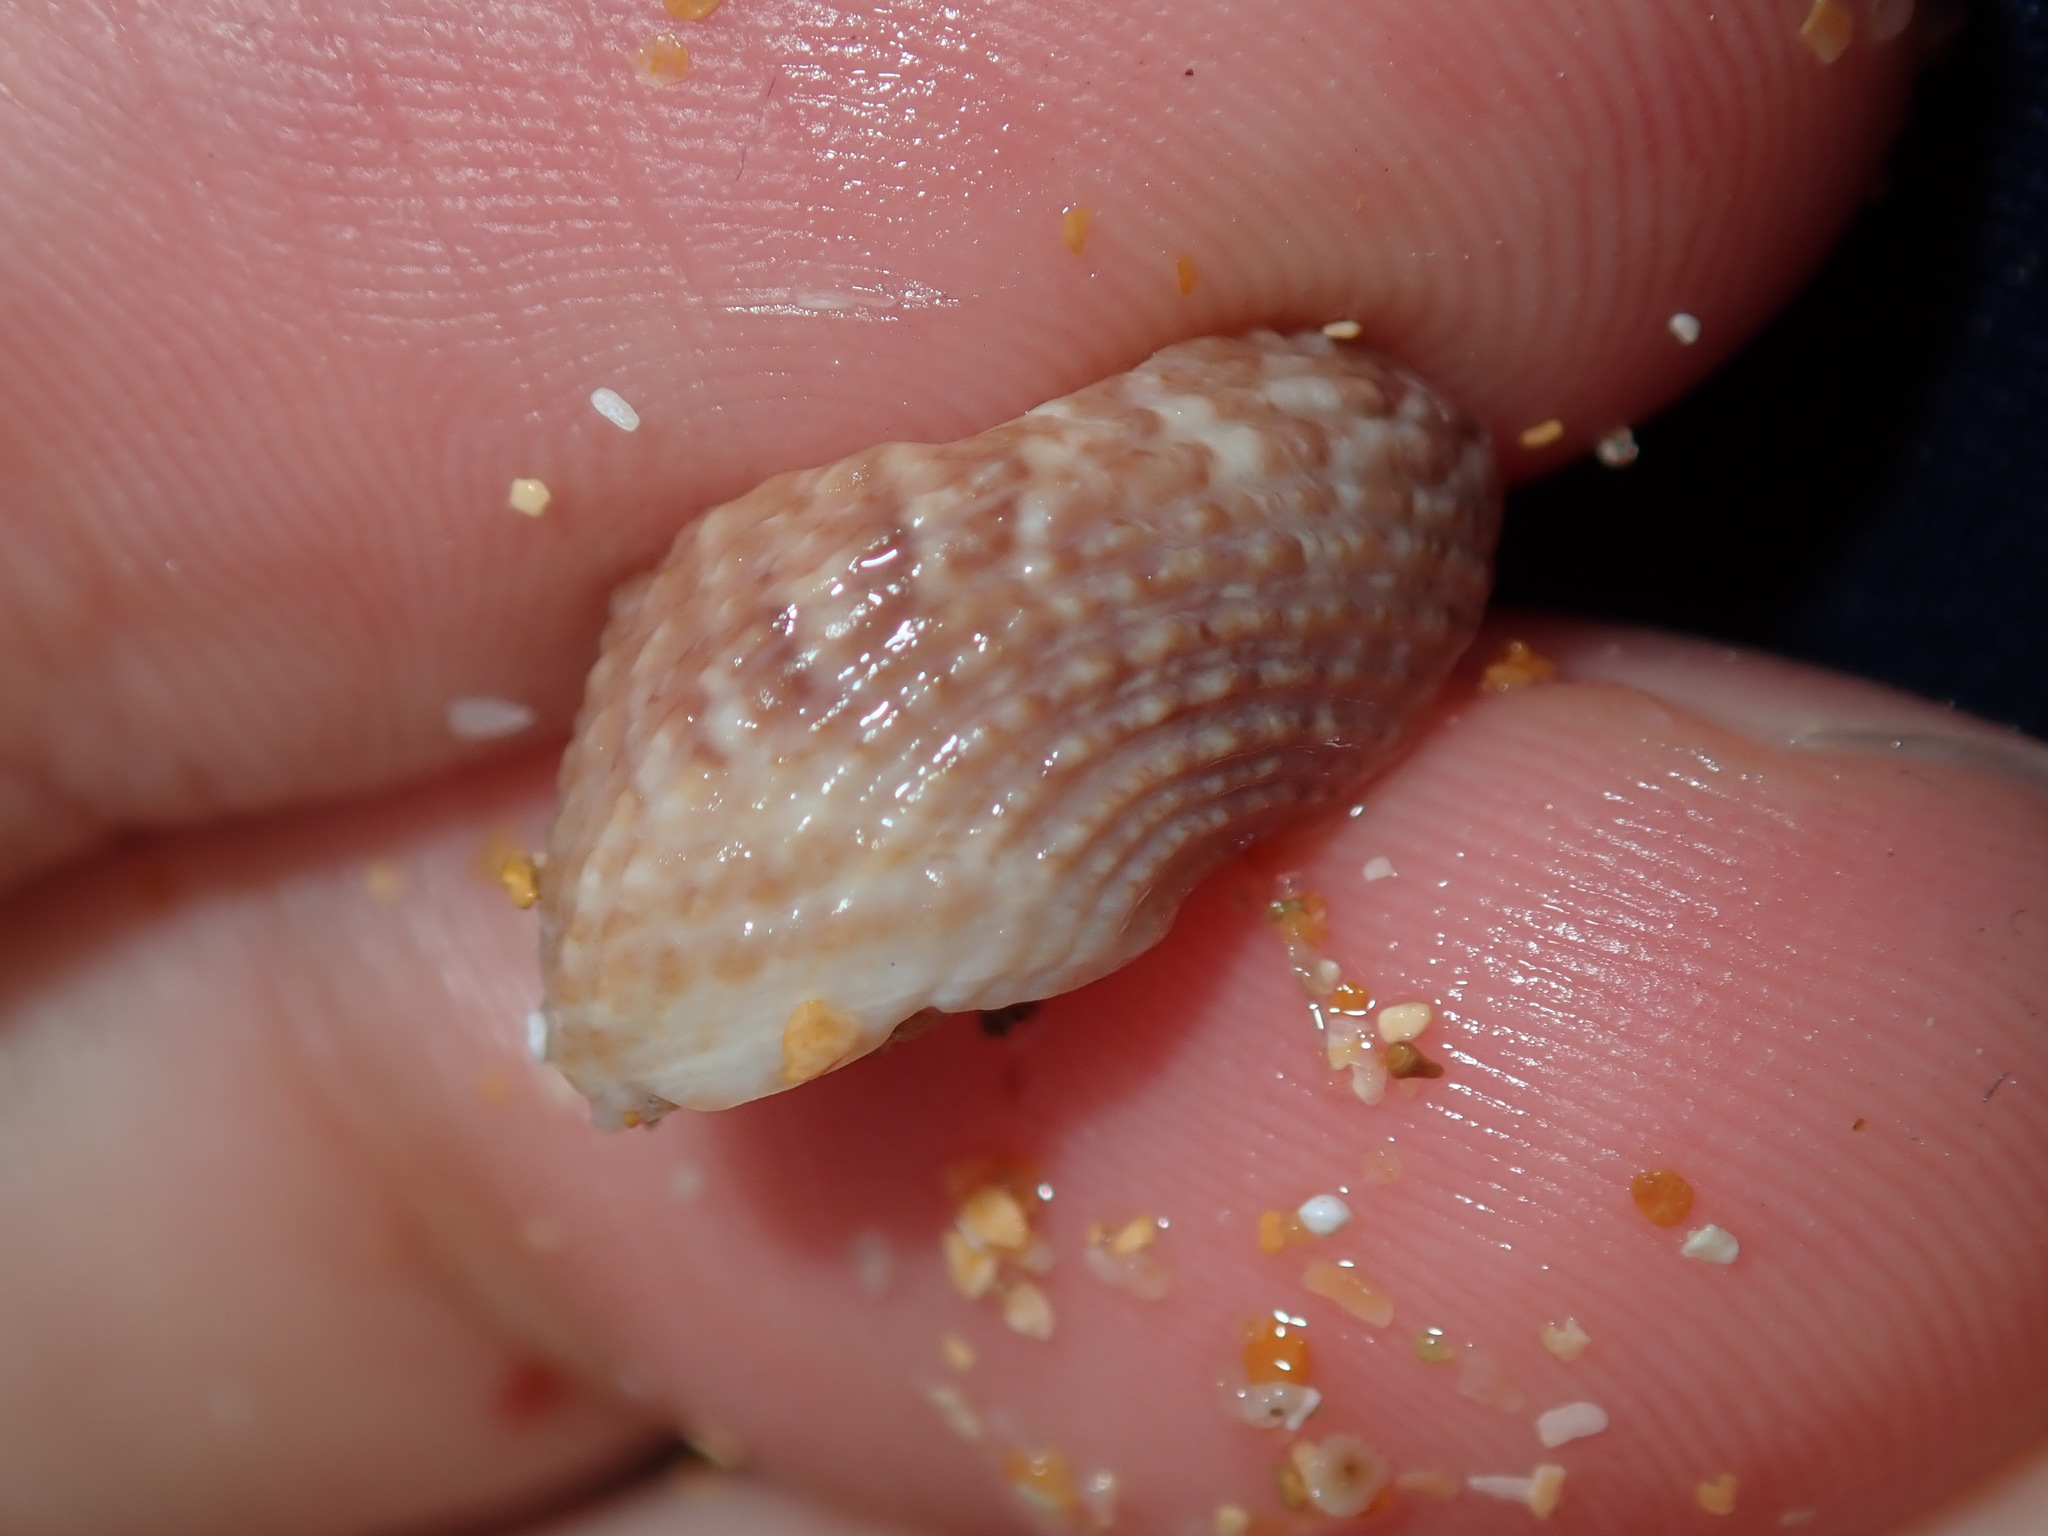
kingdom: Animalia
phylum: Mollusca
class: Gastropoda
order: Trochida
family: Trochidae
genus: Calthalotia
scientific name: Calthalotia fragum
